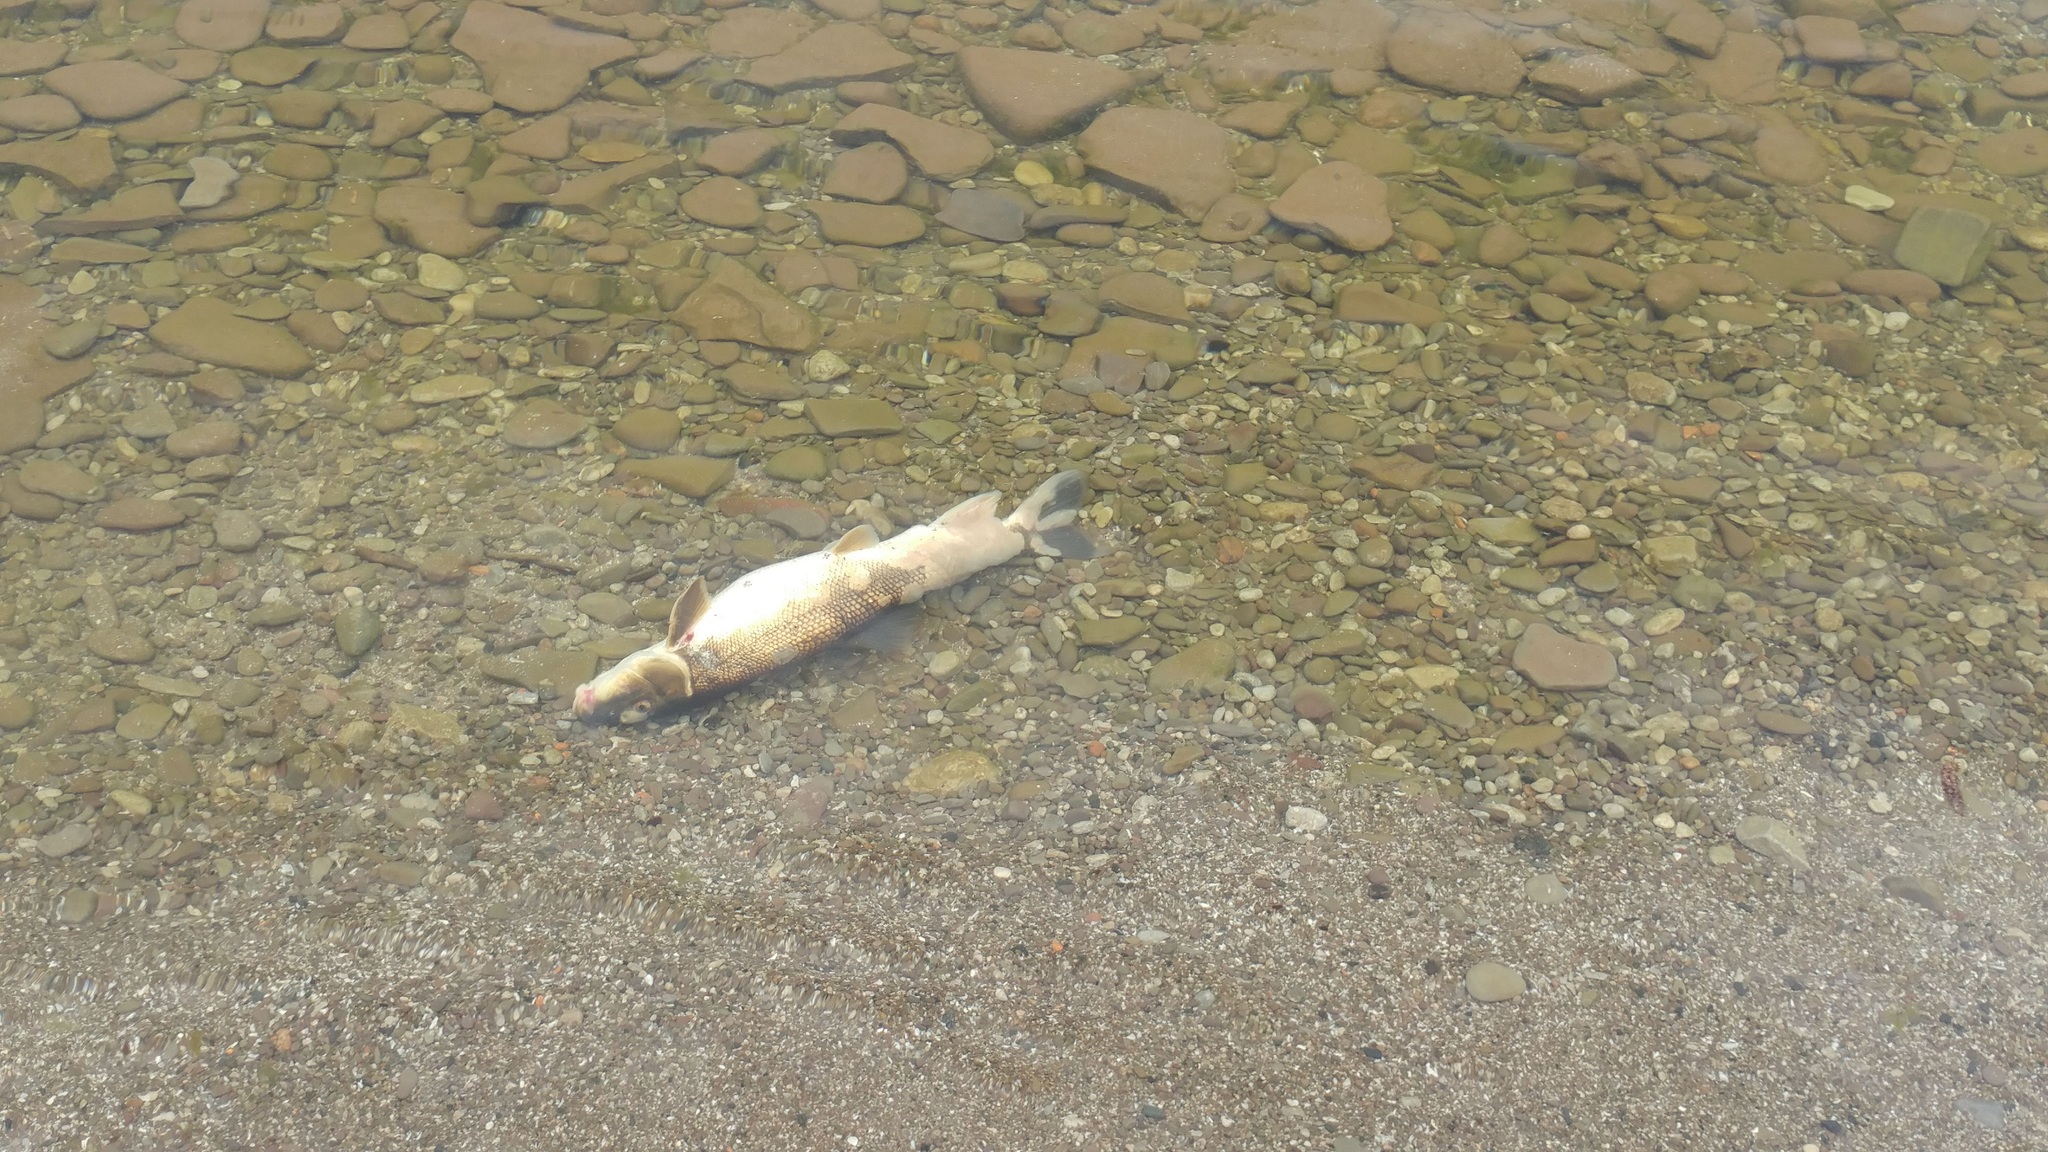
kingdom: Animalia
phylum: Chordata
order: Cypriniformes
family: Catostomidae
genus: Catostomus
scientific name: Catostomus commersonii
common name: White sucker
